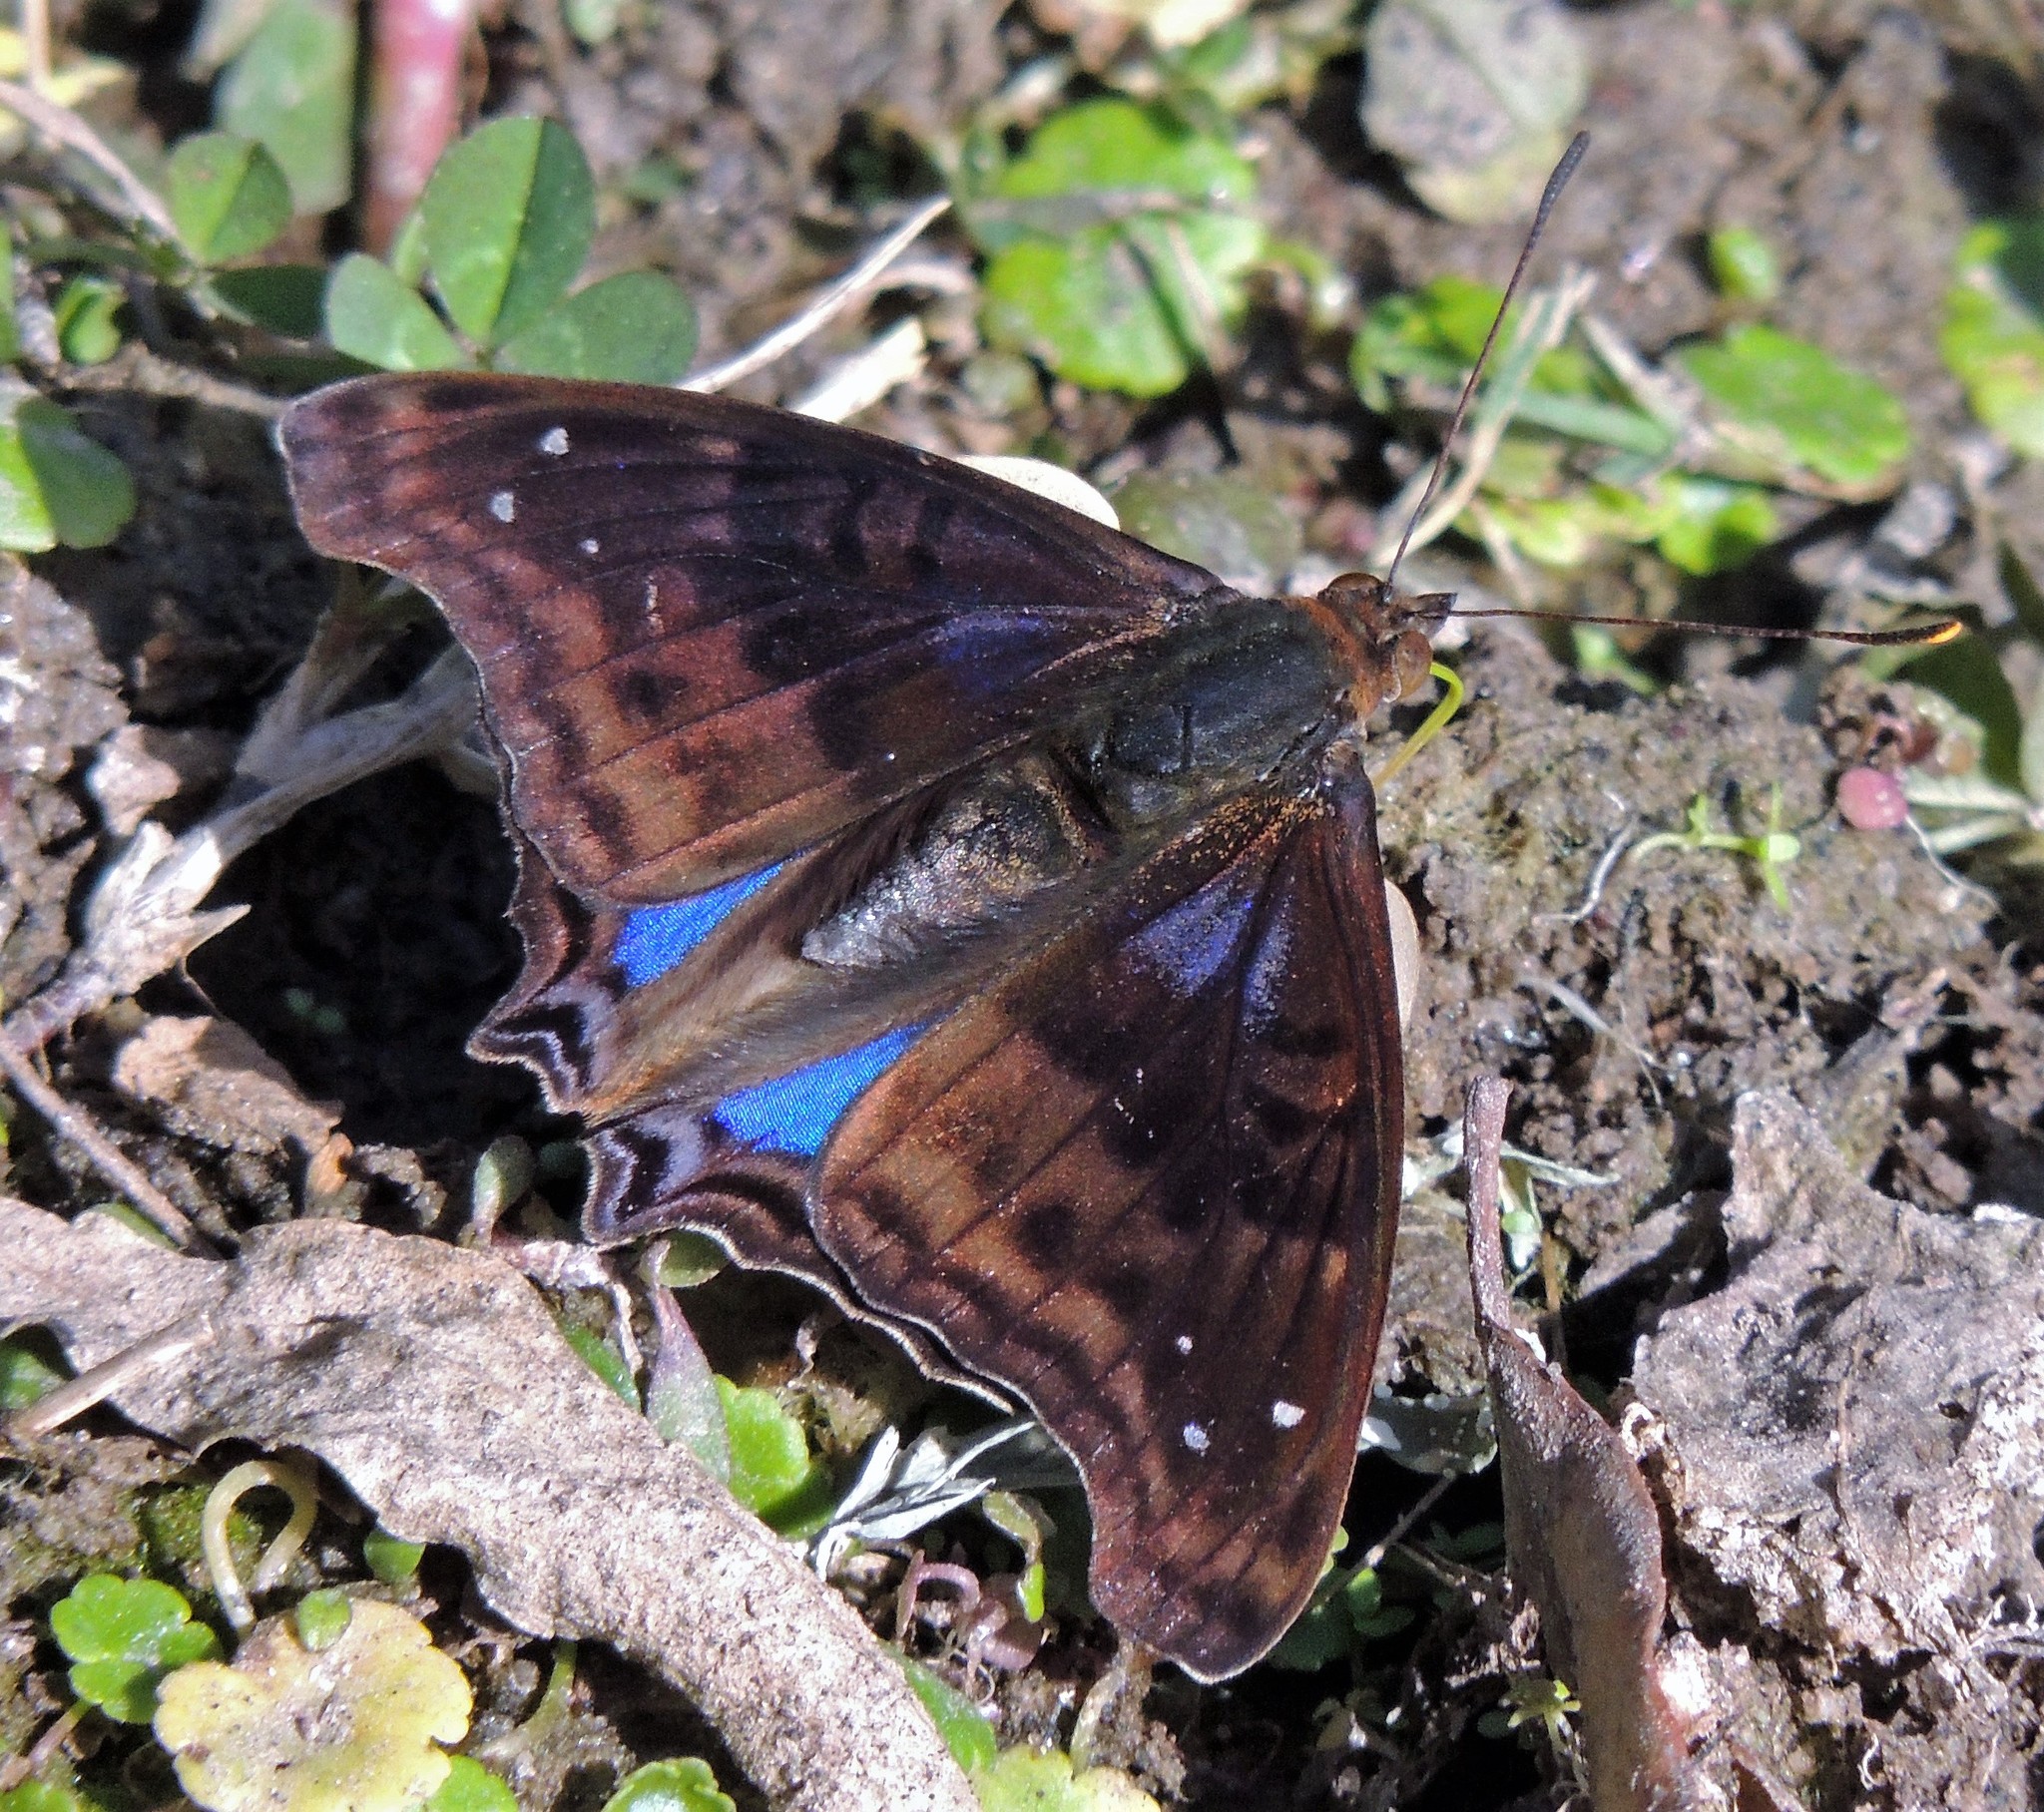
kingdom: Animalia
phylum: Arthropoda
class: Insecta
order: Lepidoptera
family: Nymphalidae
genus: Doxocopa
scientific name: Doxocopa cyane
